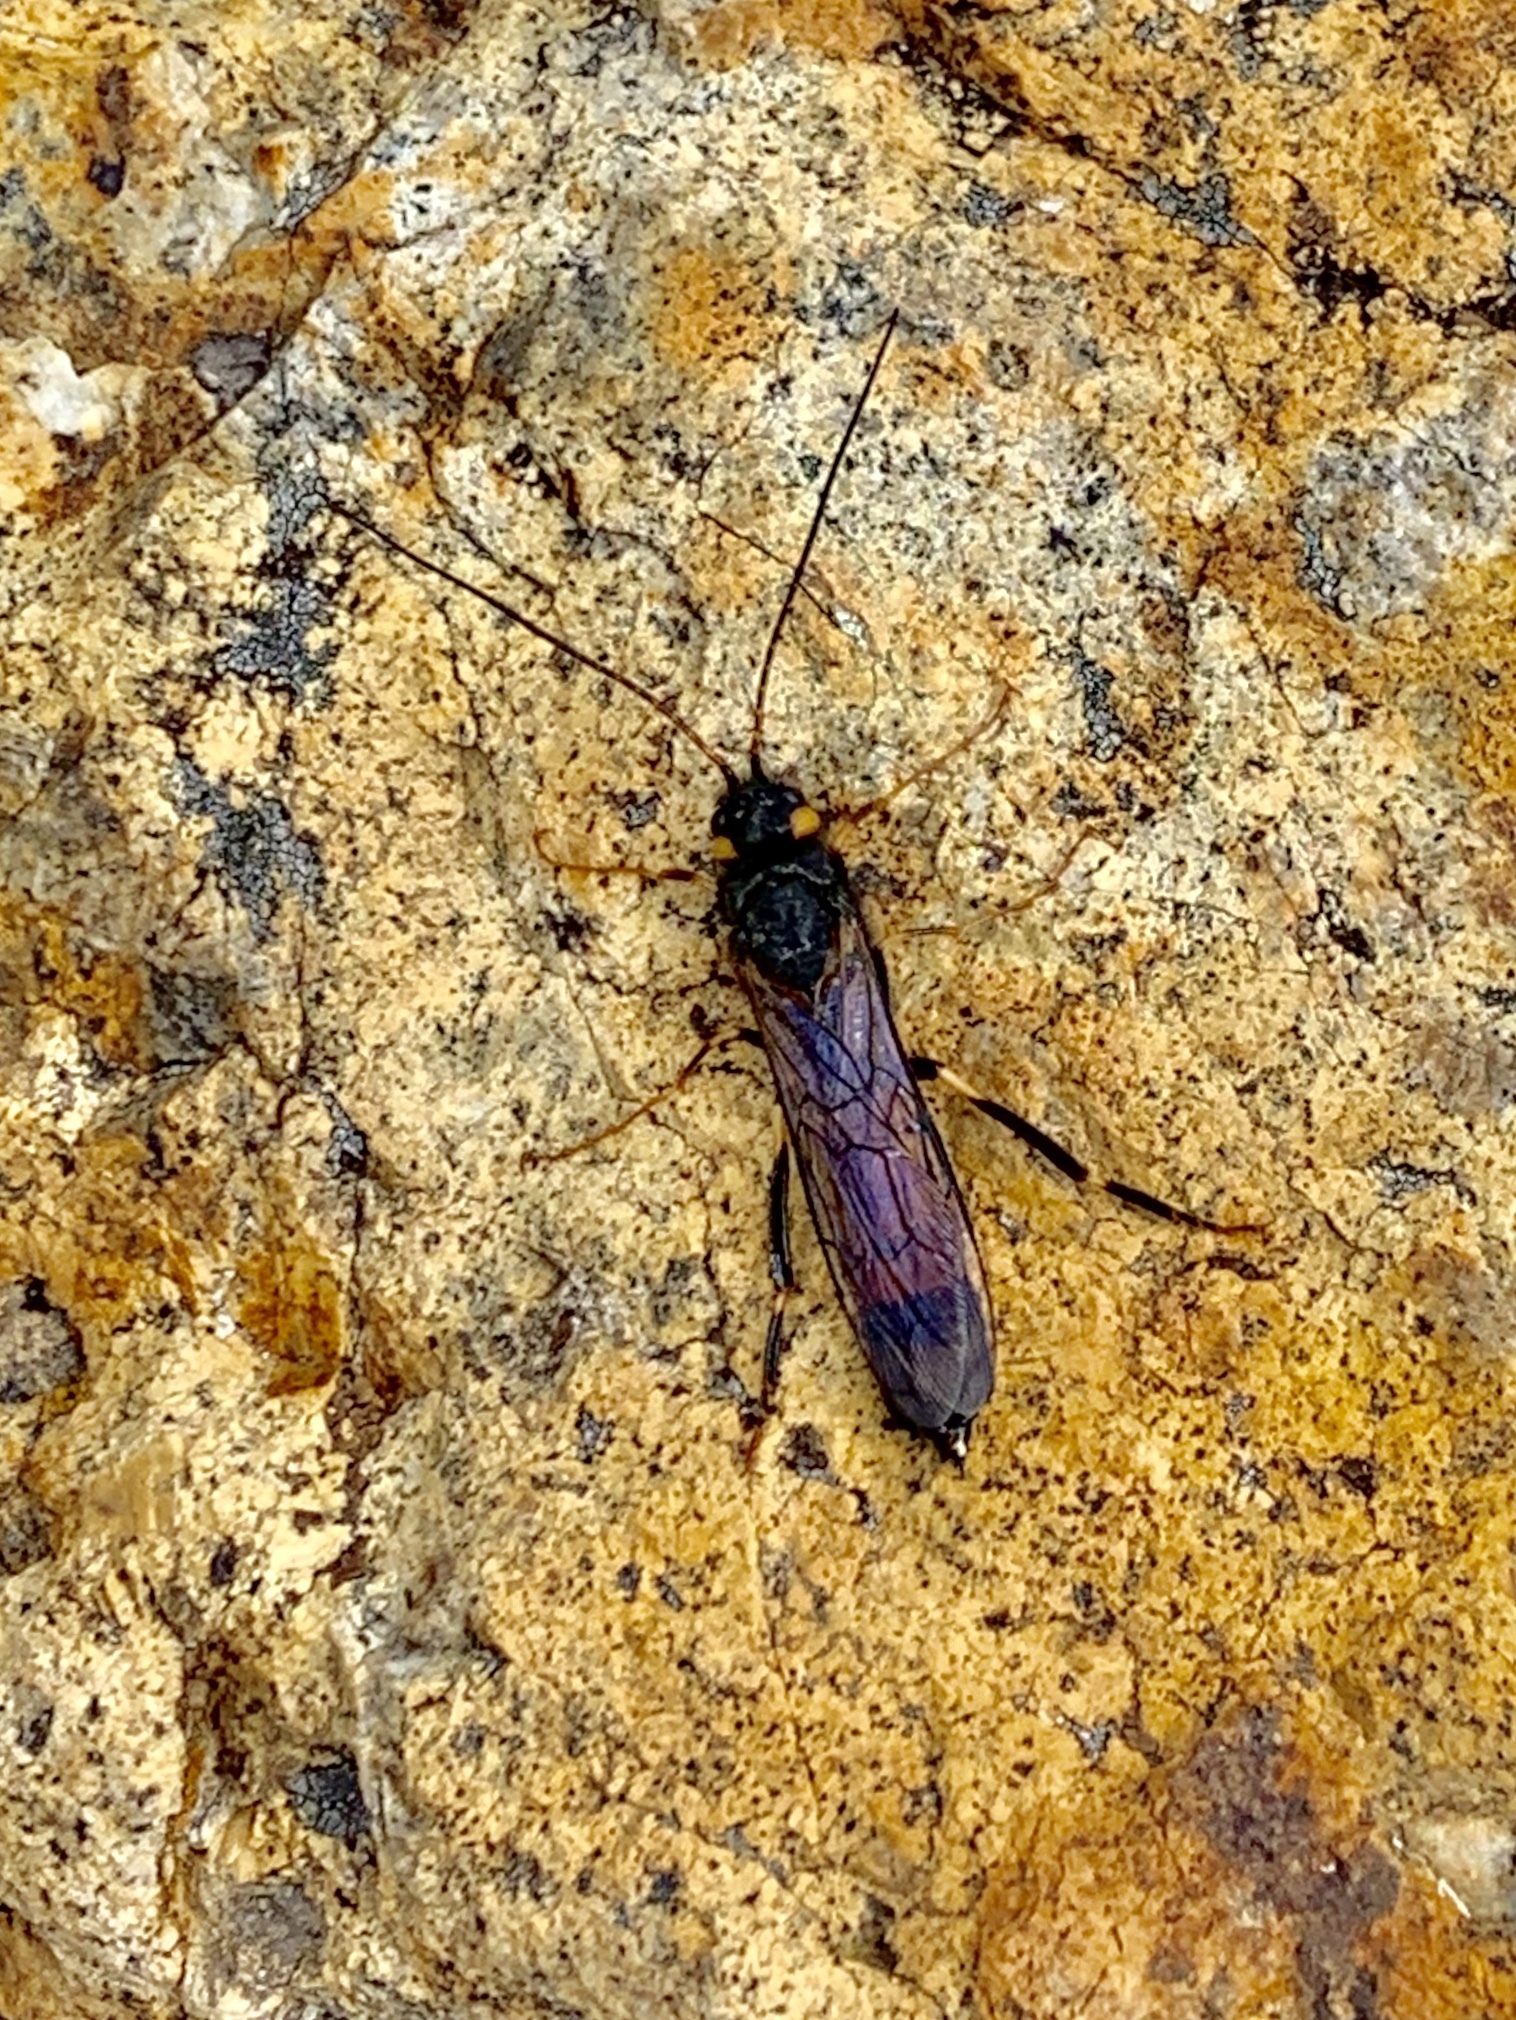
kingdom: Animalia
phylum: Arthropoda
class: Insecta
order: Hymenoptera
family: Siricidae
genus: Urocerus
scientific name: Urocerus flavicornis
